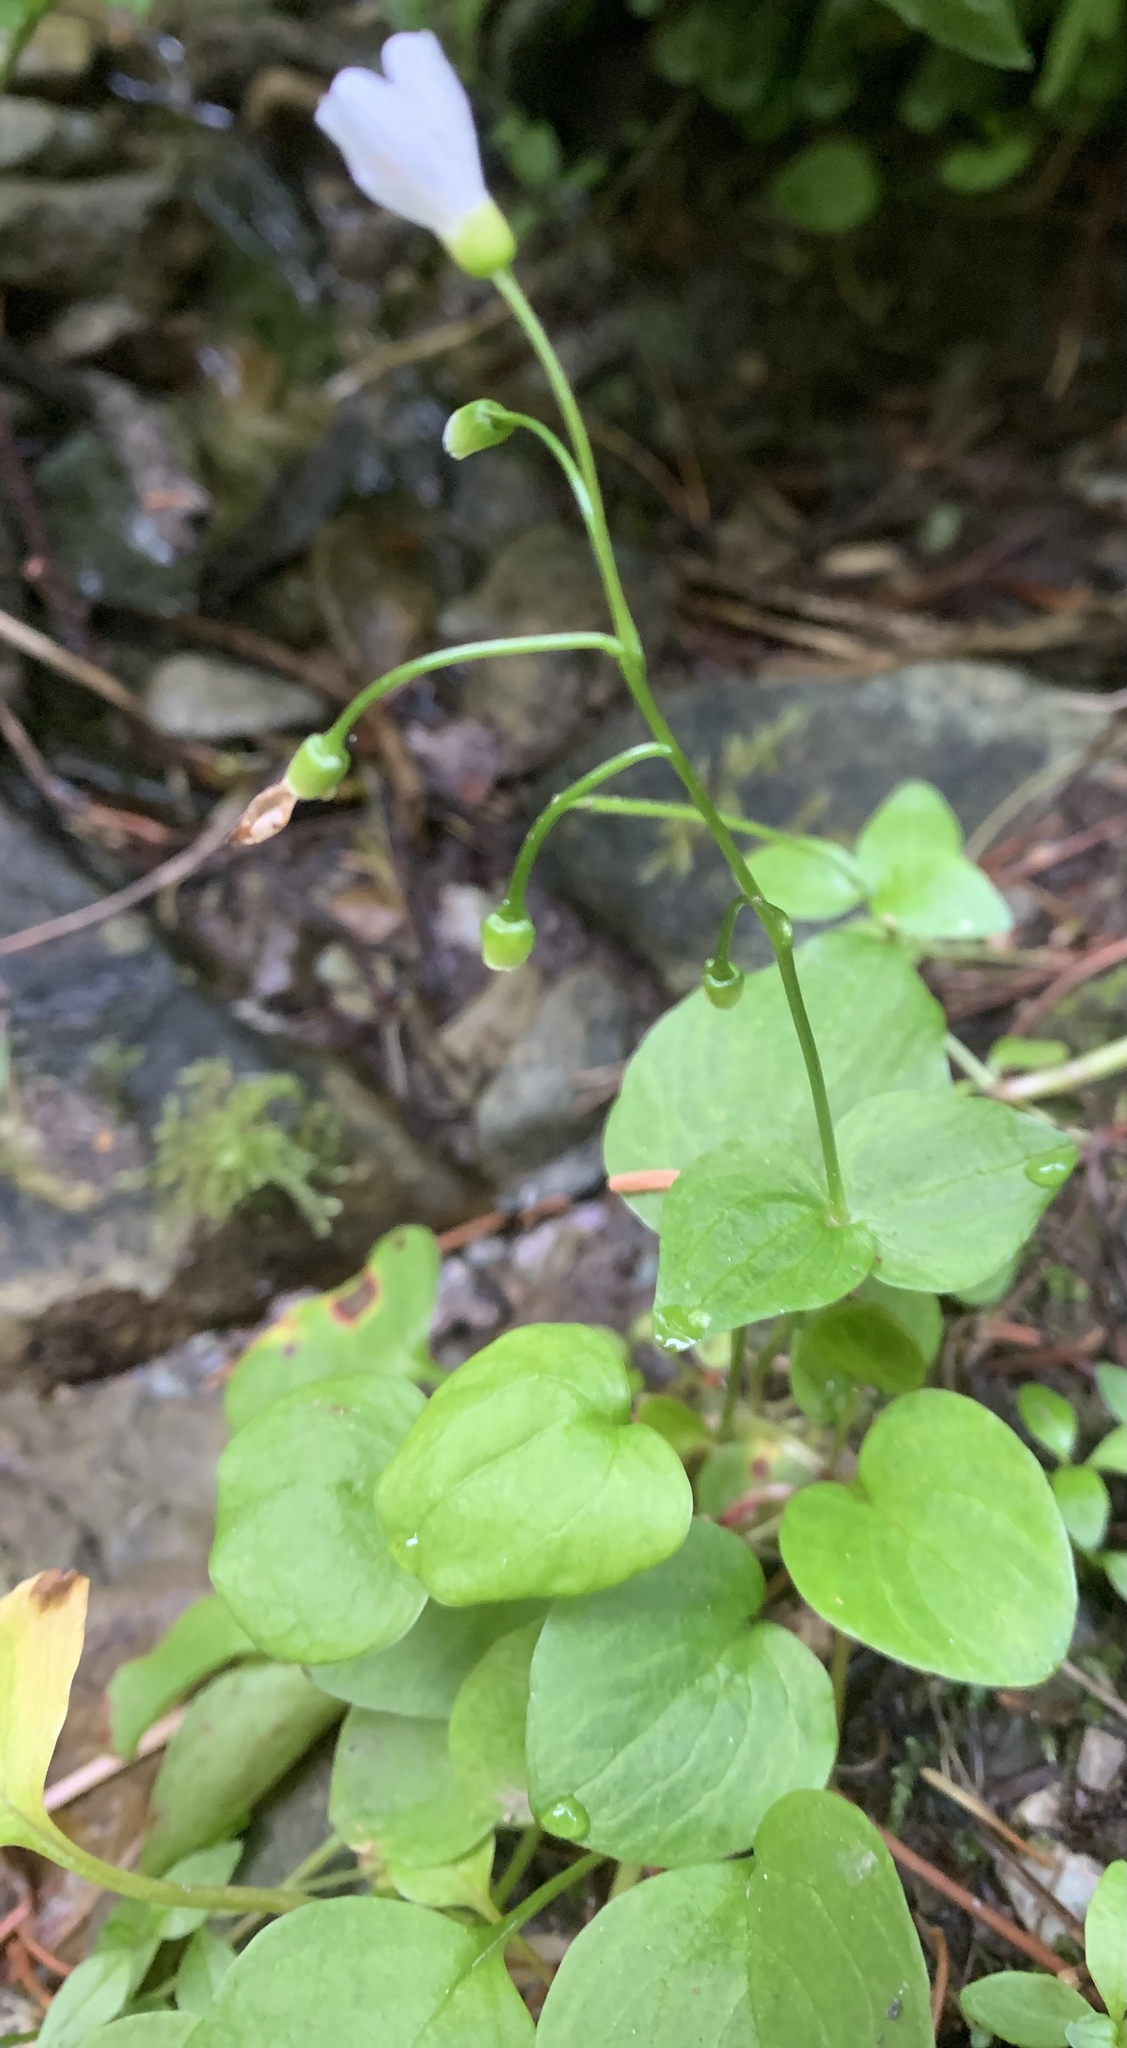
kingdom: Plantae
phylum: Tracheophyta
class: Magnoliopsida
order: Caryophyllales
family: Montiaceae
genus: Claytonia
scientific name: Claytonia cordifolia
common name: Broad-leaved spring beauty
